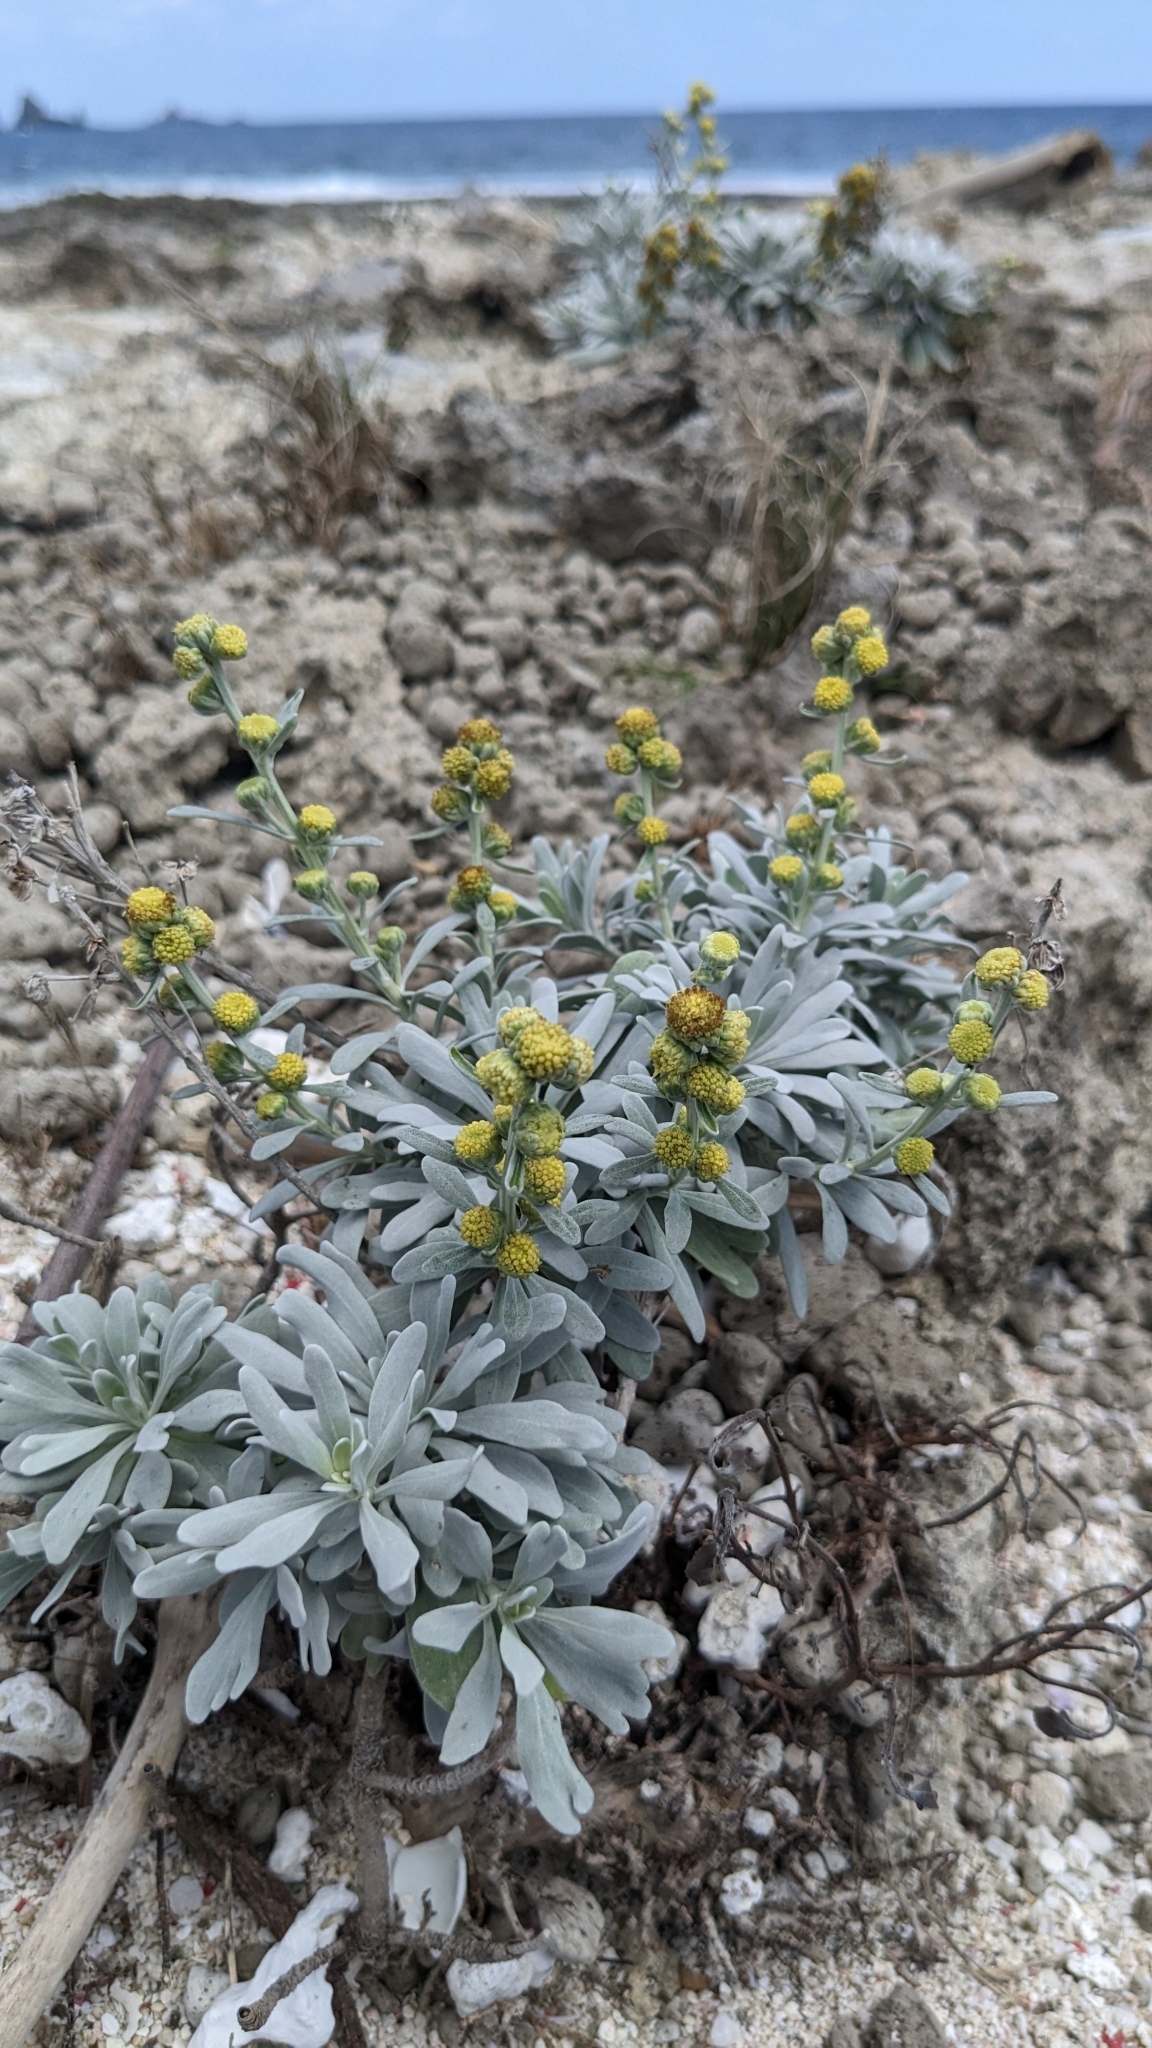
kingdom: Plantae
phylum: Tracheophyta
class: Magnoliopsida
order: Asterales
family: Asteraceae
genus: Crossostephium
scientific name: Crossostephium chinense
